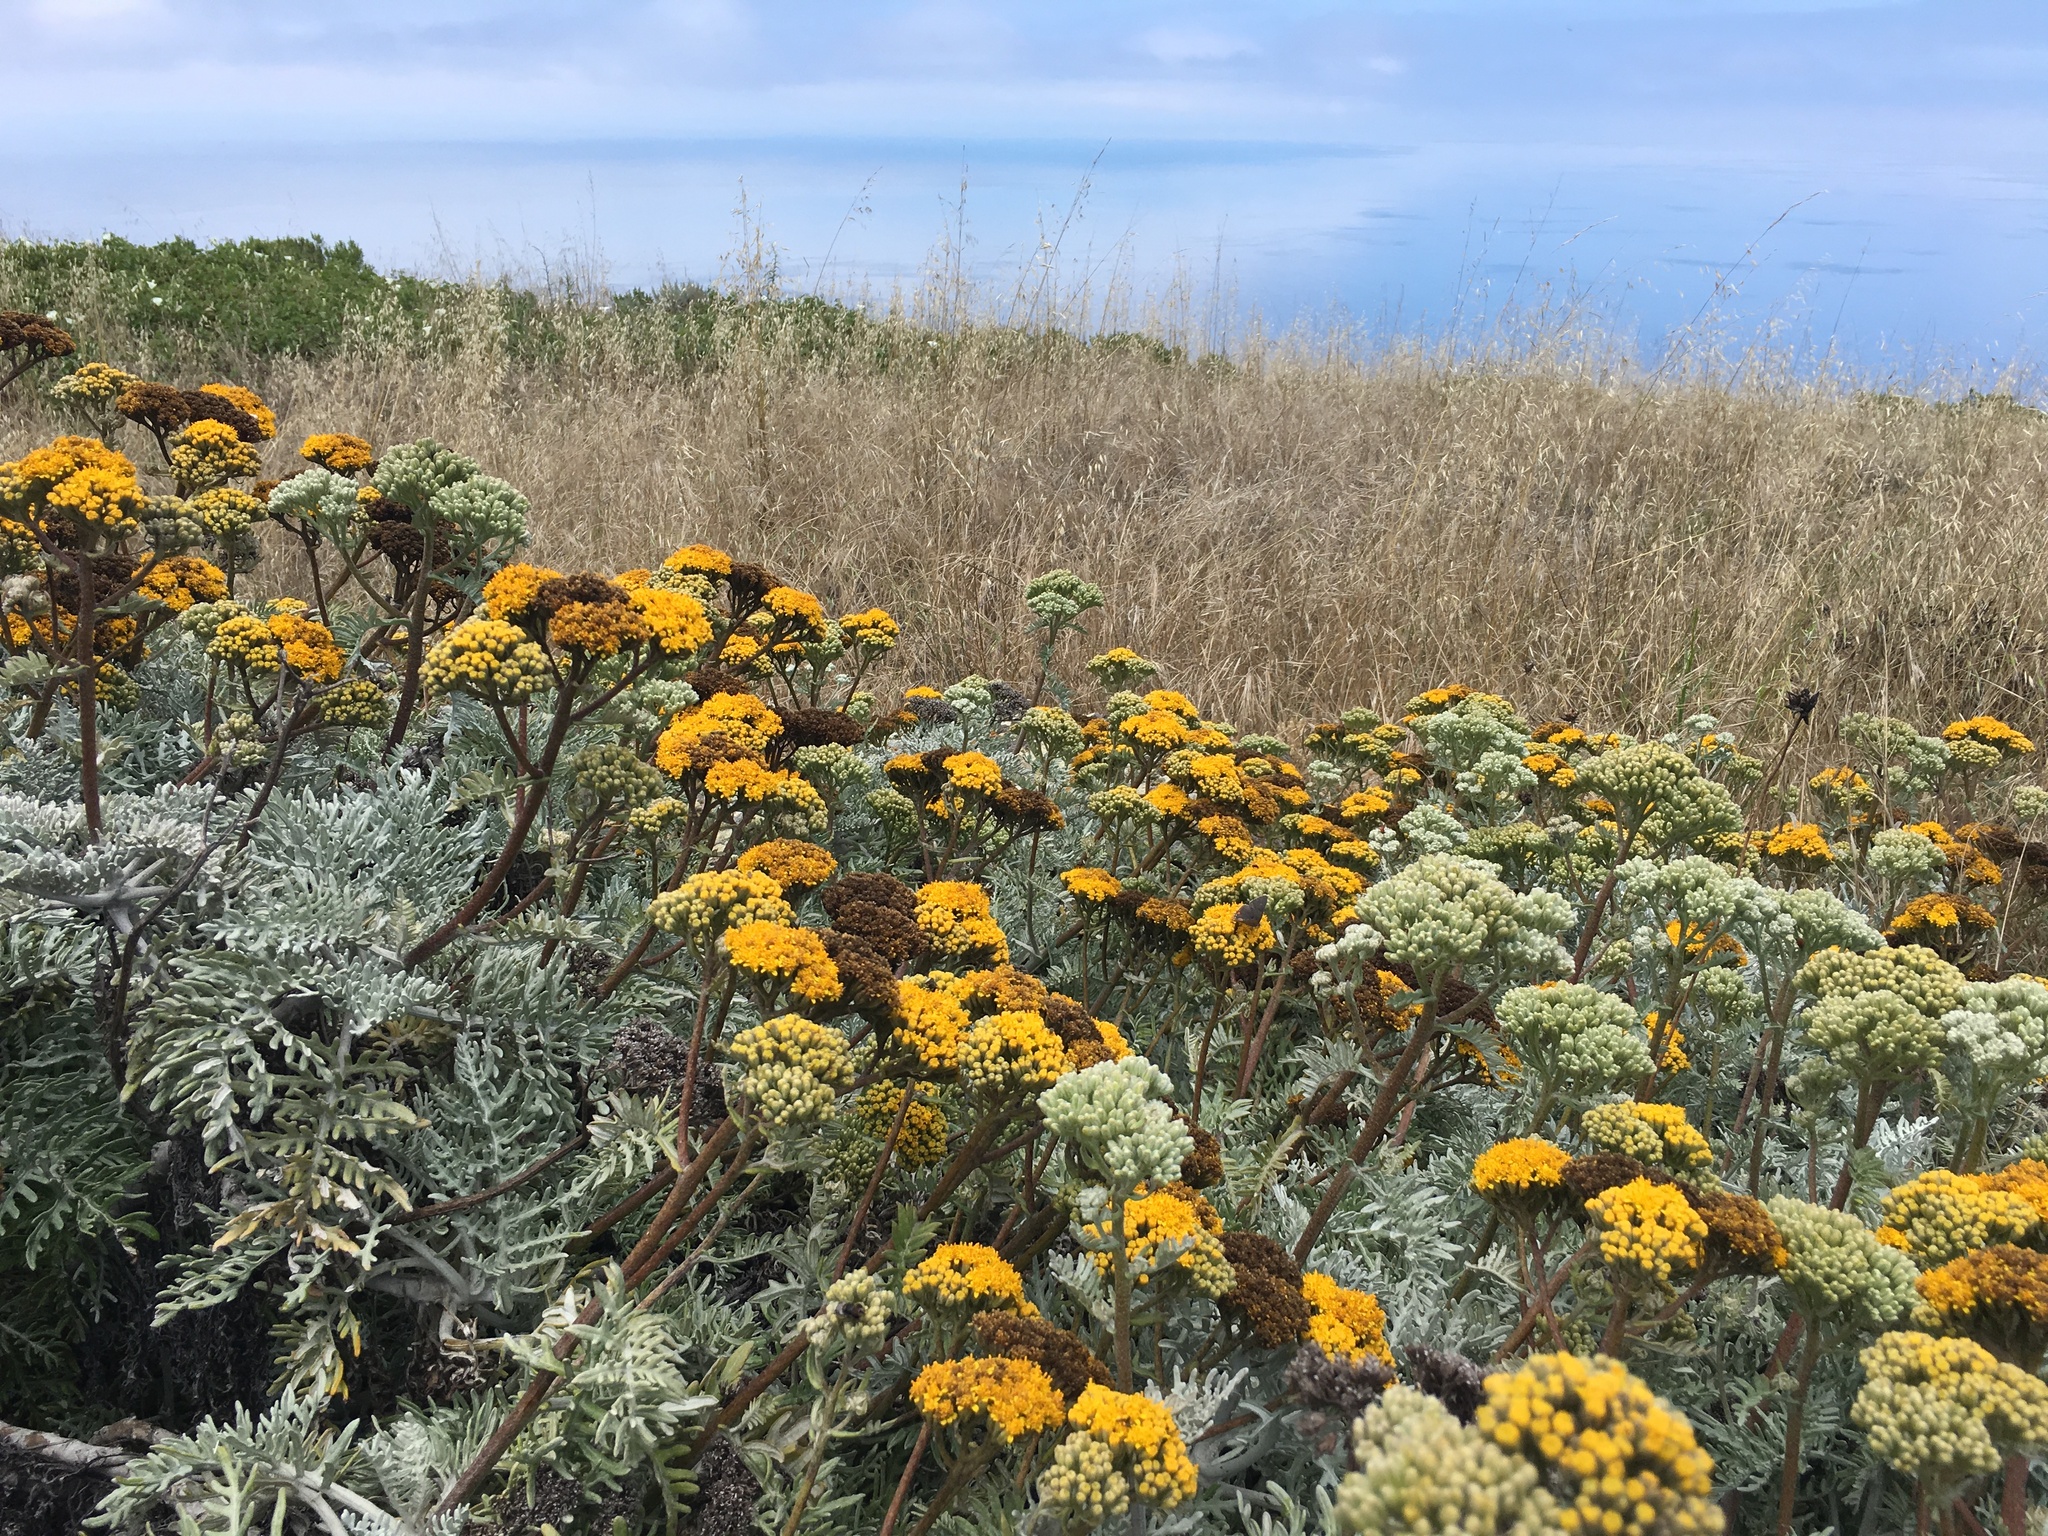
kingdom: Plantae
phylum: Tracheophyta
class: Magnoliopsida
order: Asterales
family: Asteraceae
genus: Constancea
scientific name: Constancea nevinii
